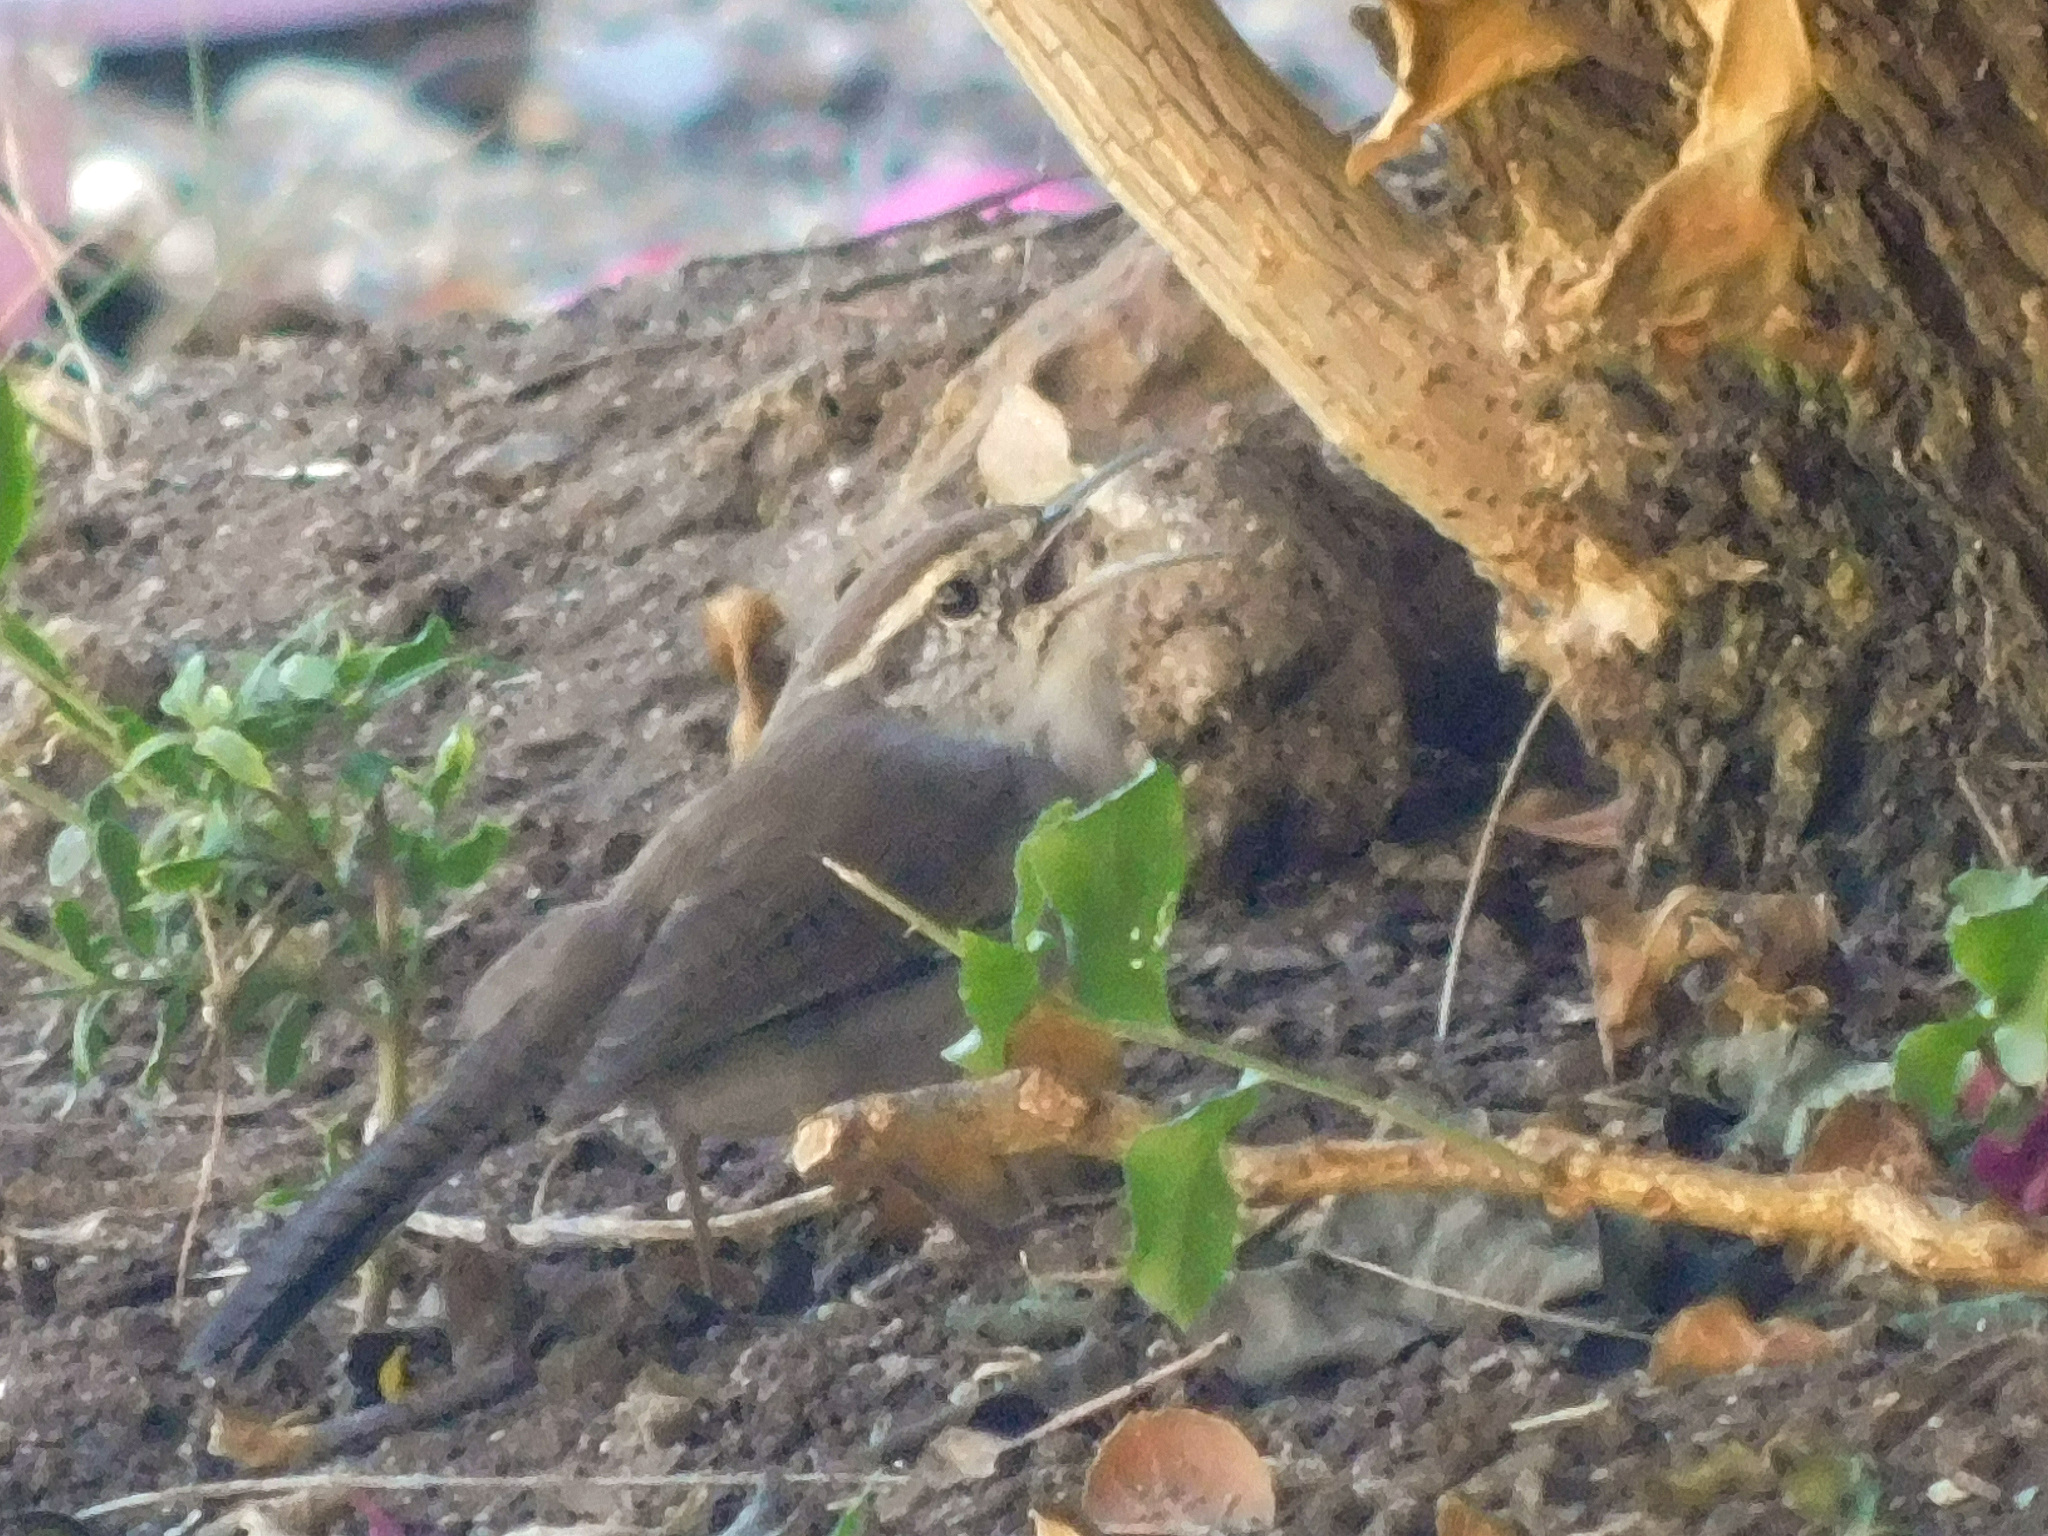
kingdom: Animalia
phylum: Chordata
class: Aves
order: Passeriformes
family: Troglodytidae
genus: Thryomanes
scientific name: Thryomanes bewickii
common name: Bewick's wren
